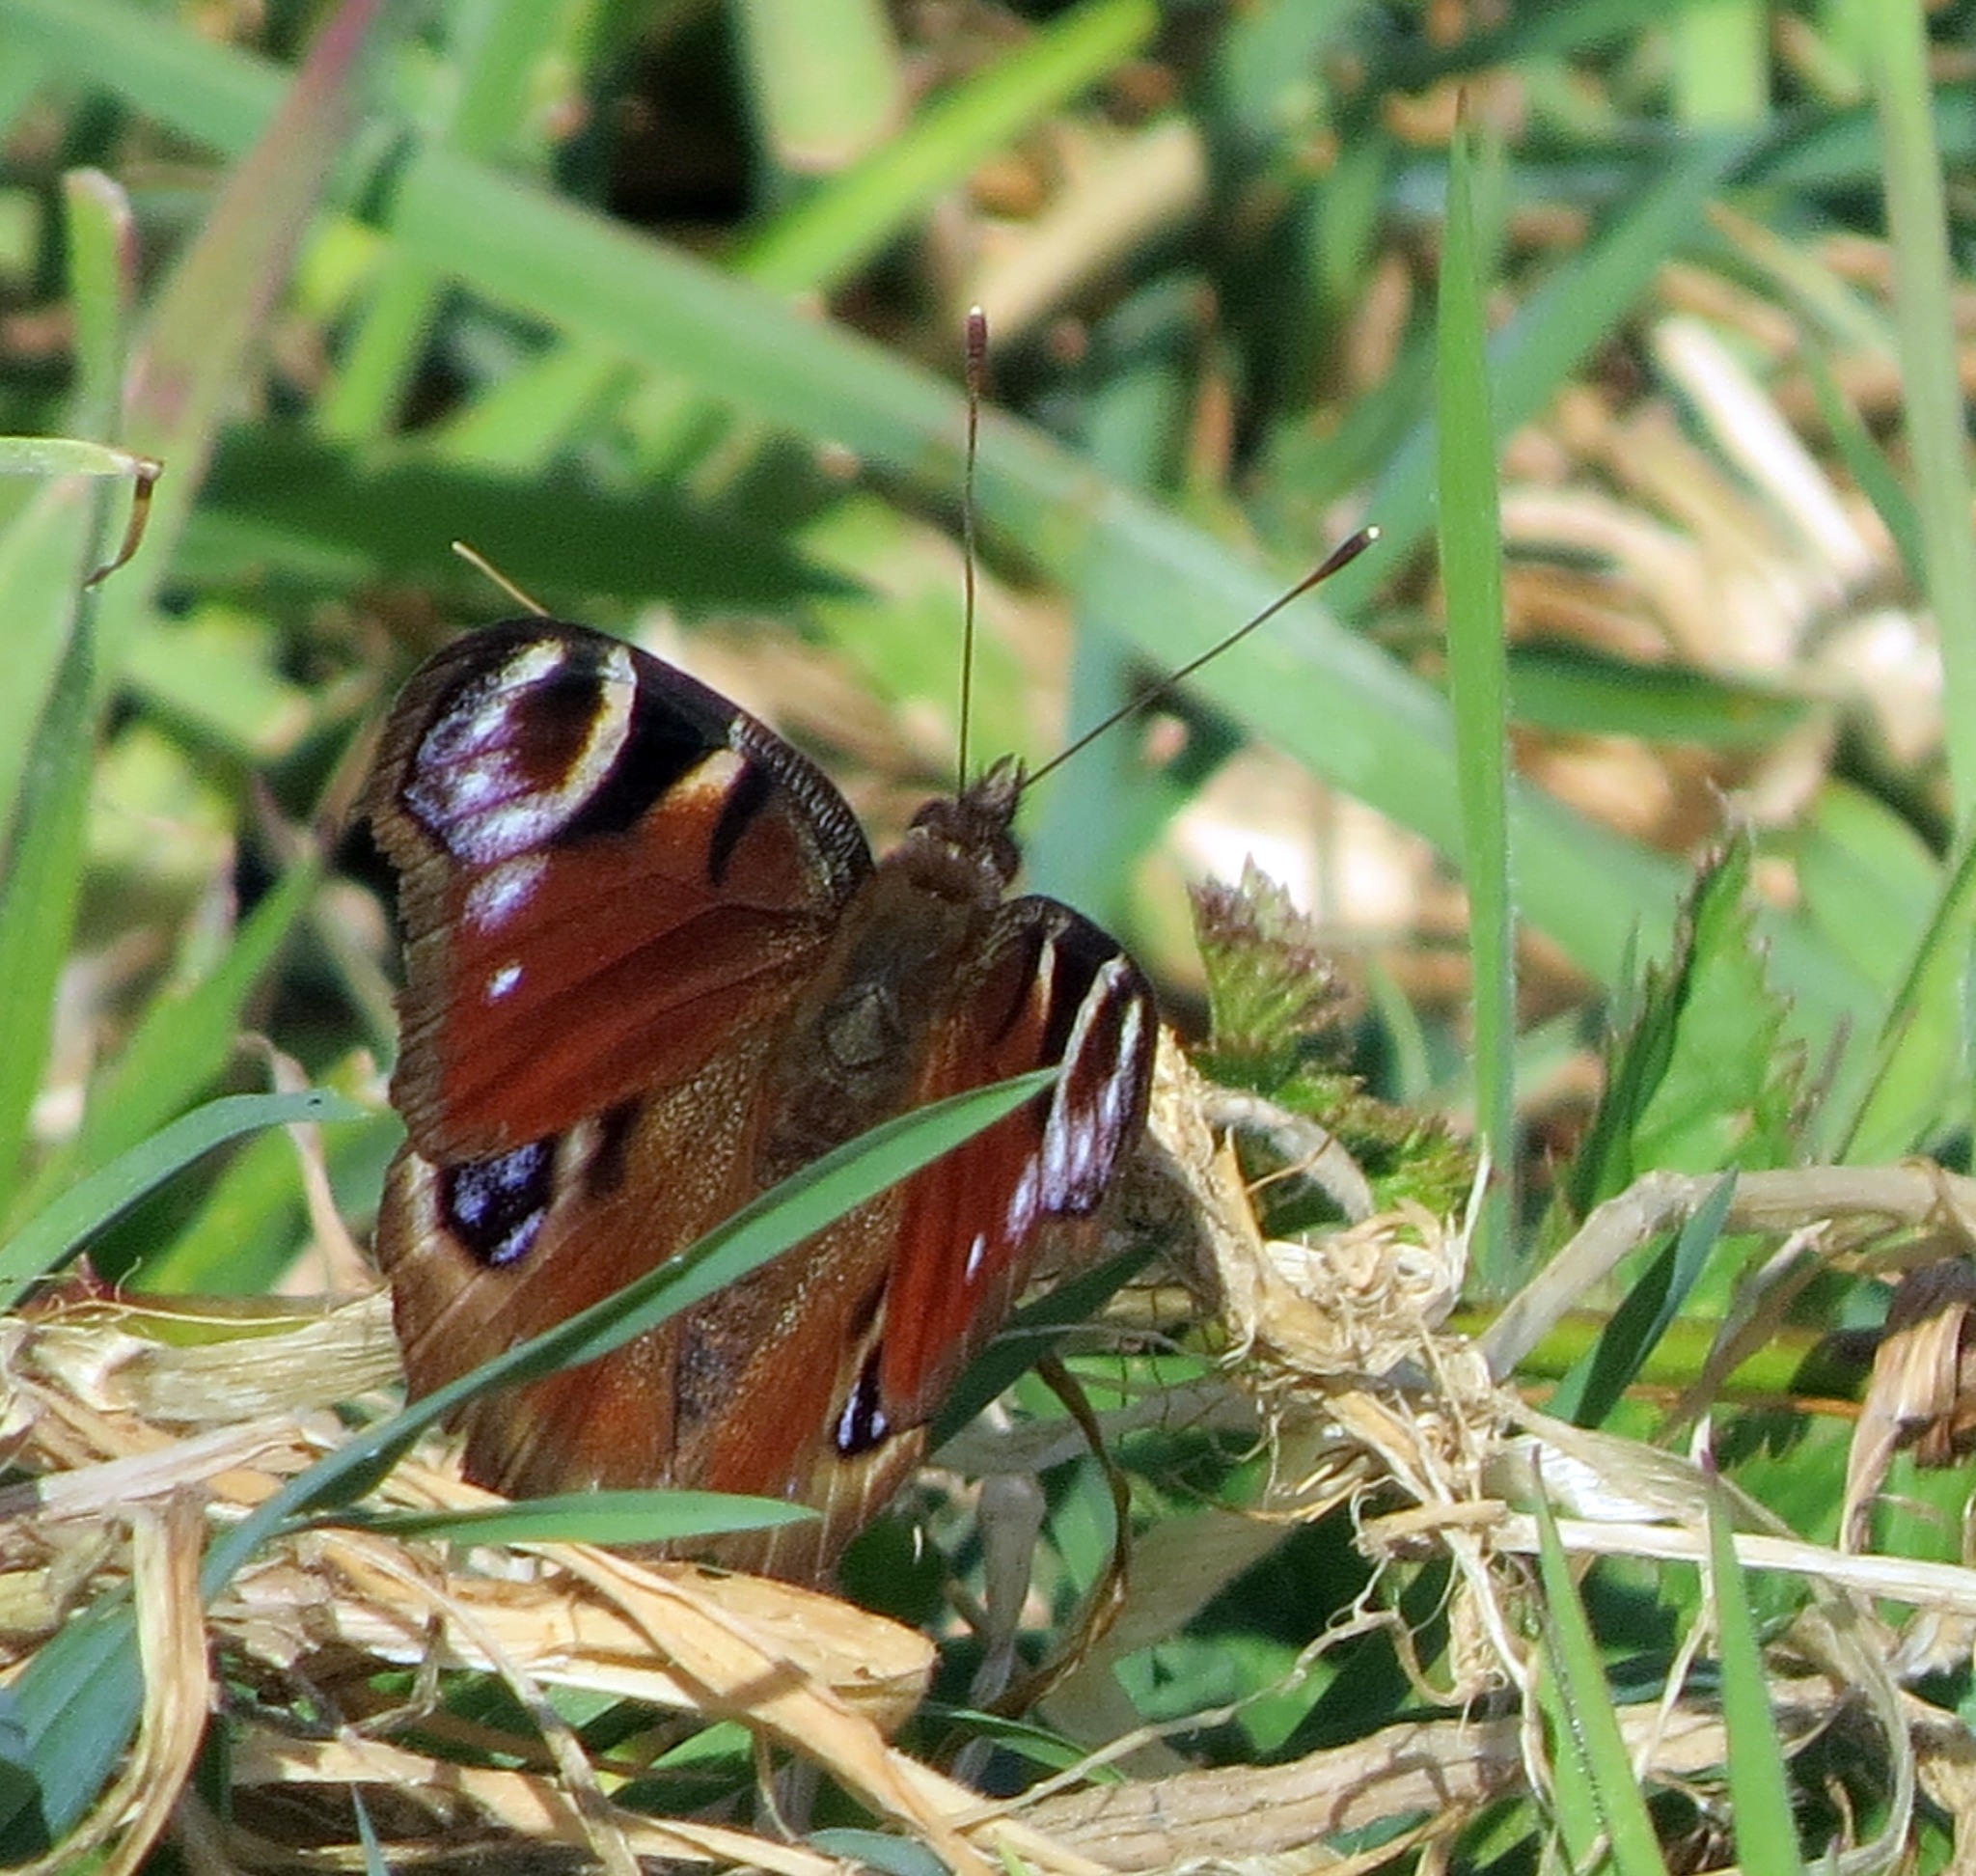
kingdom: Animalia
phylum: Arthropoda
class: Insecta
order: Lepidoptera
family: Nymphalidae
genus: Aglais
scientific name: Aglais io
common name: Peacock
